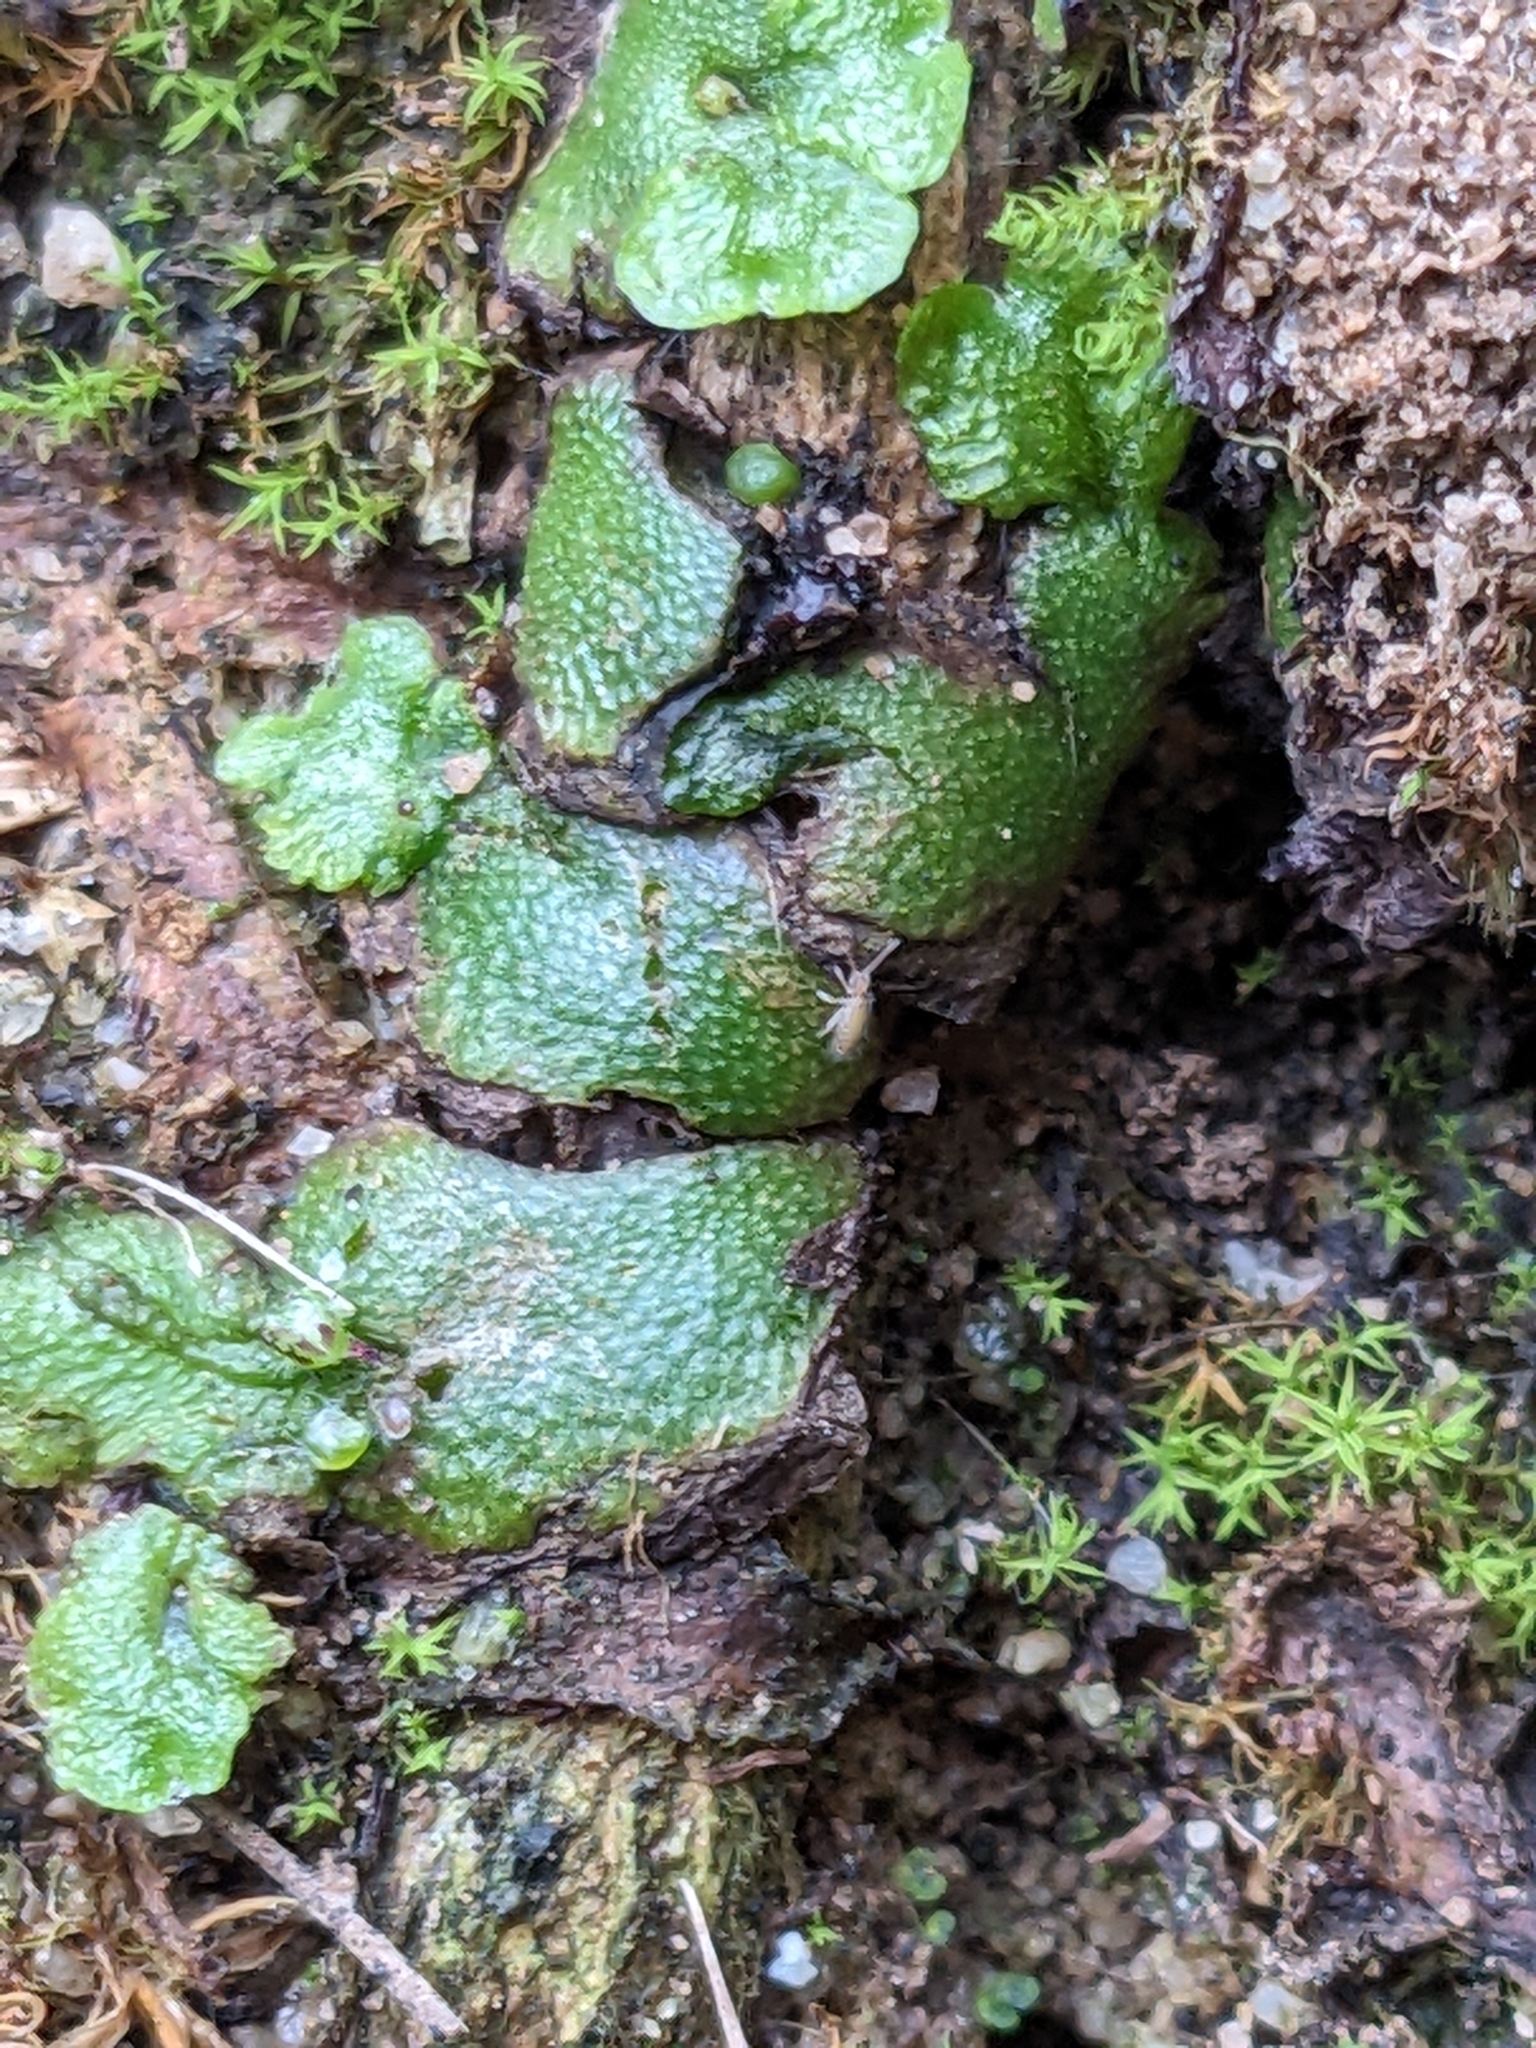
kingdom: Plantae
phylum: Marchantiophyta
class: Marchantiopsida
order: Marchantiales
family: Aytoniaceae
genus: Asterella
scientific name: Asterella californica
